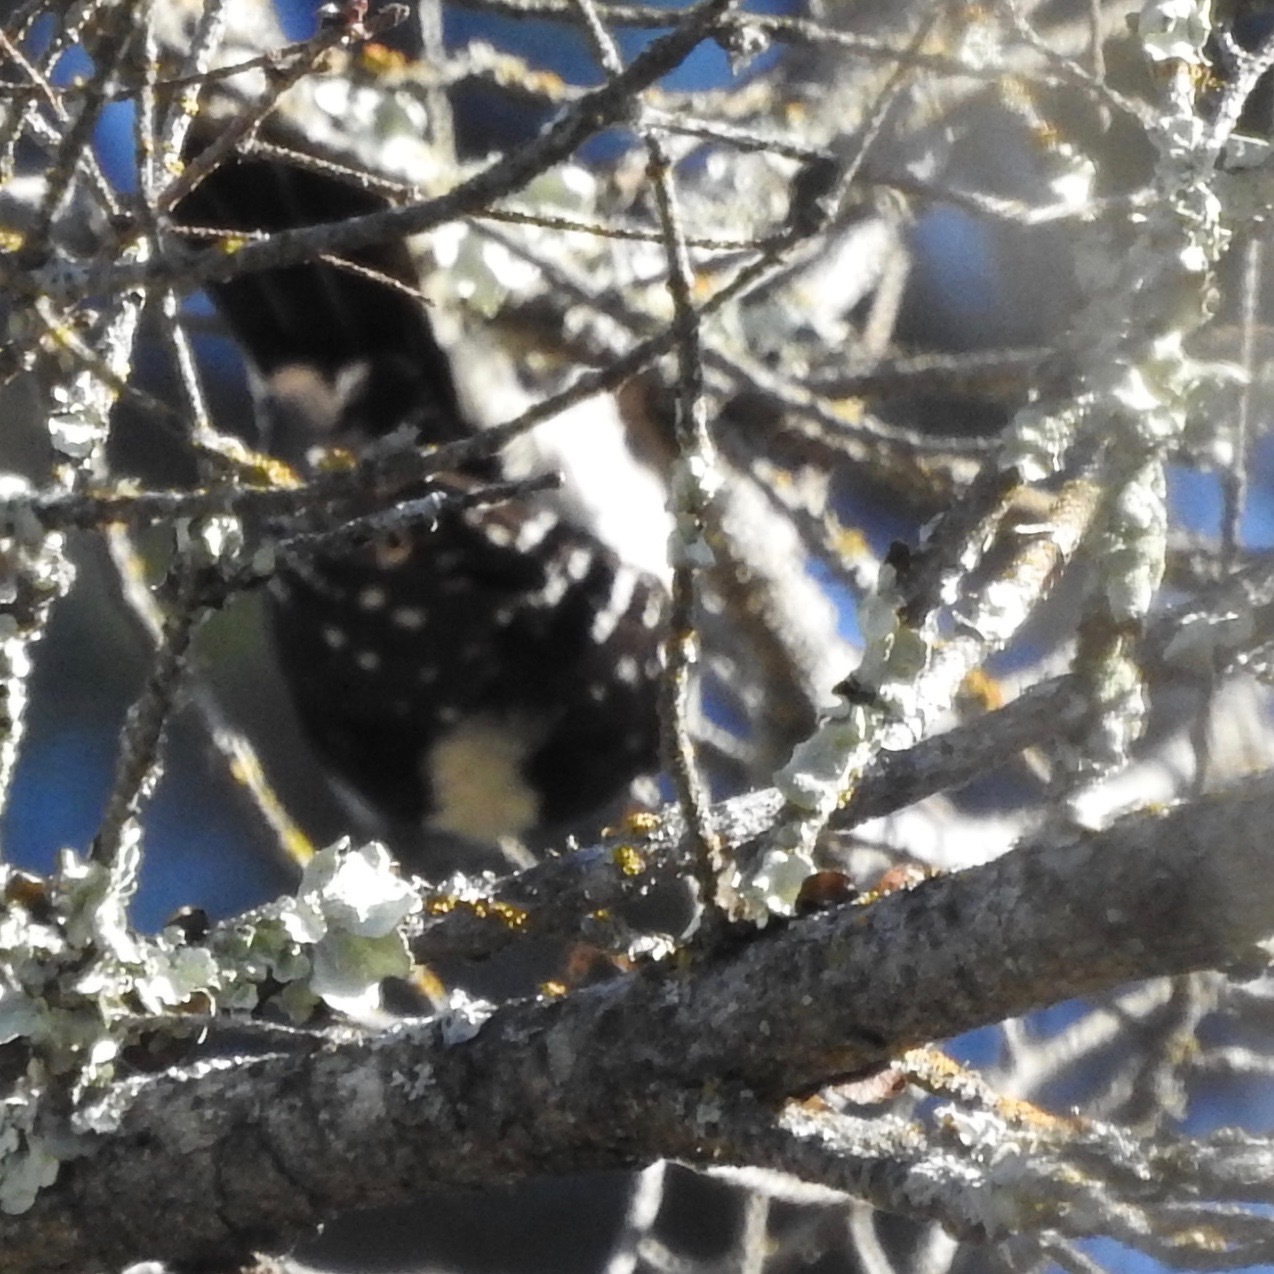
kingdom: Animalia
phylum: Chordata
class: Aves
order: Piciformes
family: Picidae
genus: Dryobates
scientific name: Dryobates
